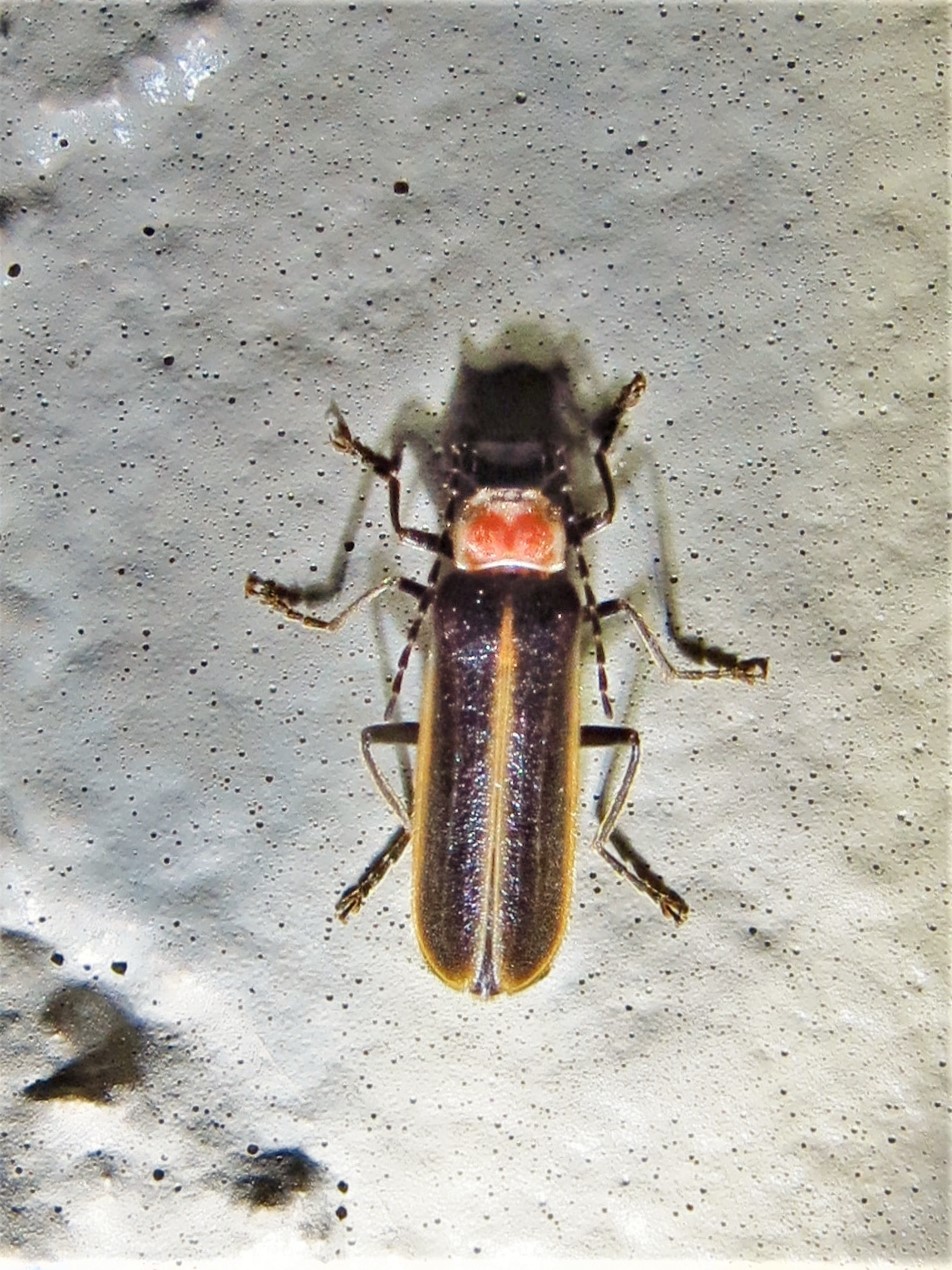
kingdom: Animalia
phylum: Arthropoda
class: Insecta
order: Coleoptera
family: Cantharidae
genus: Podabrus
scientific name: Podabrus quadratus
